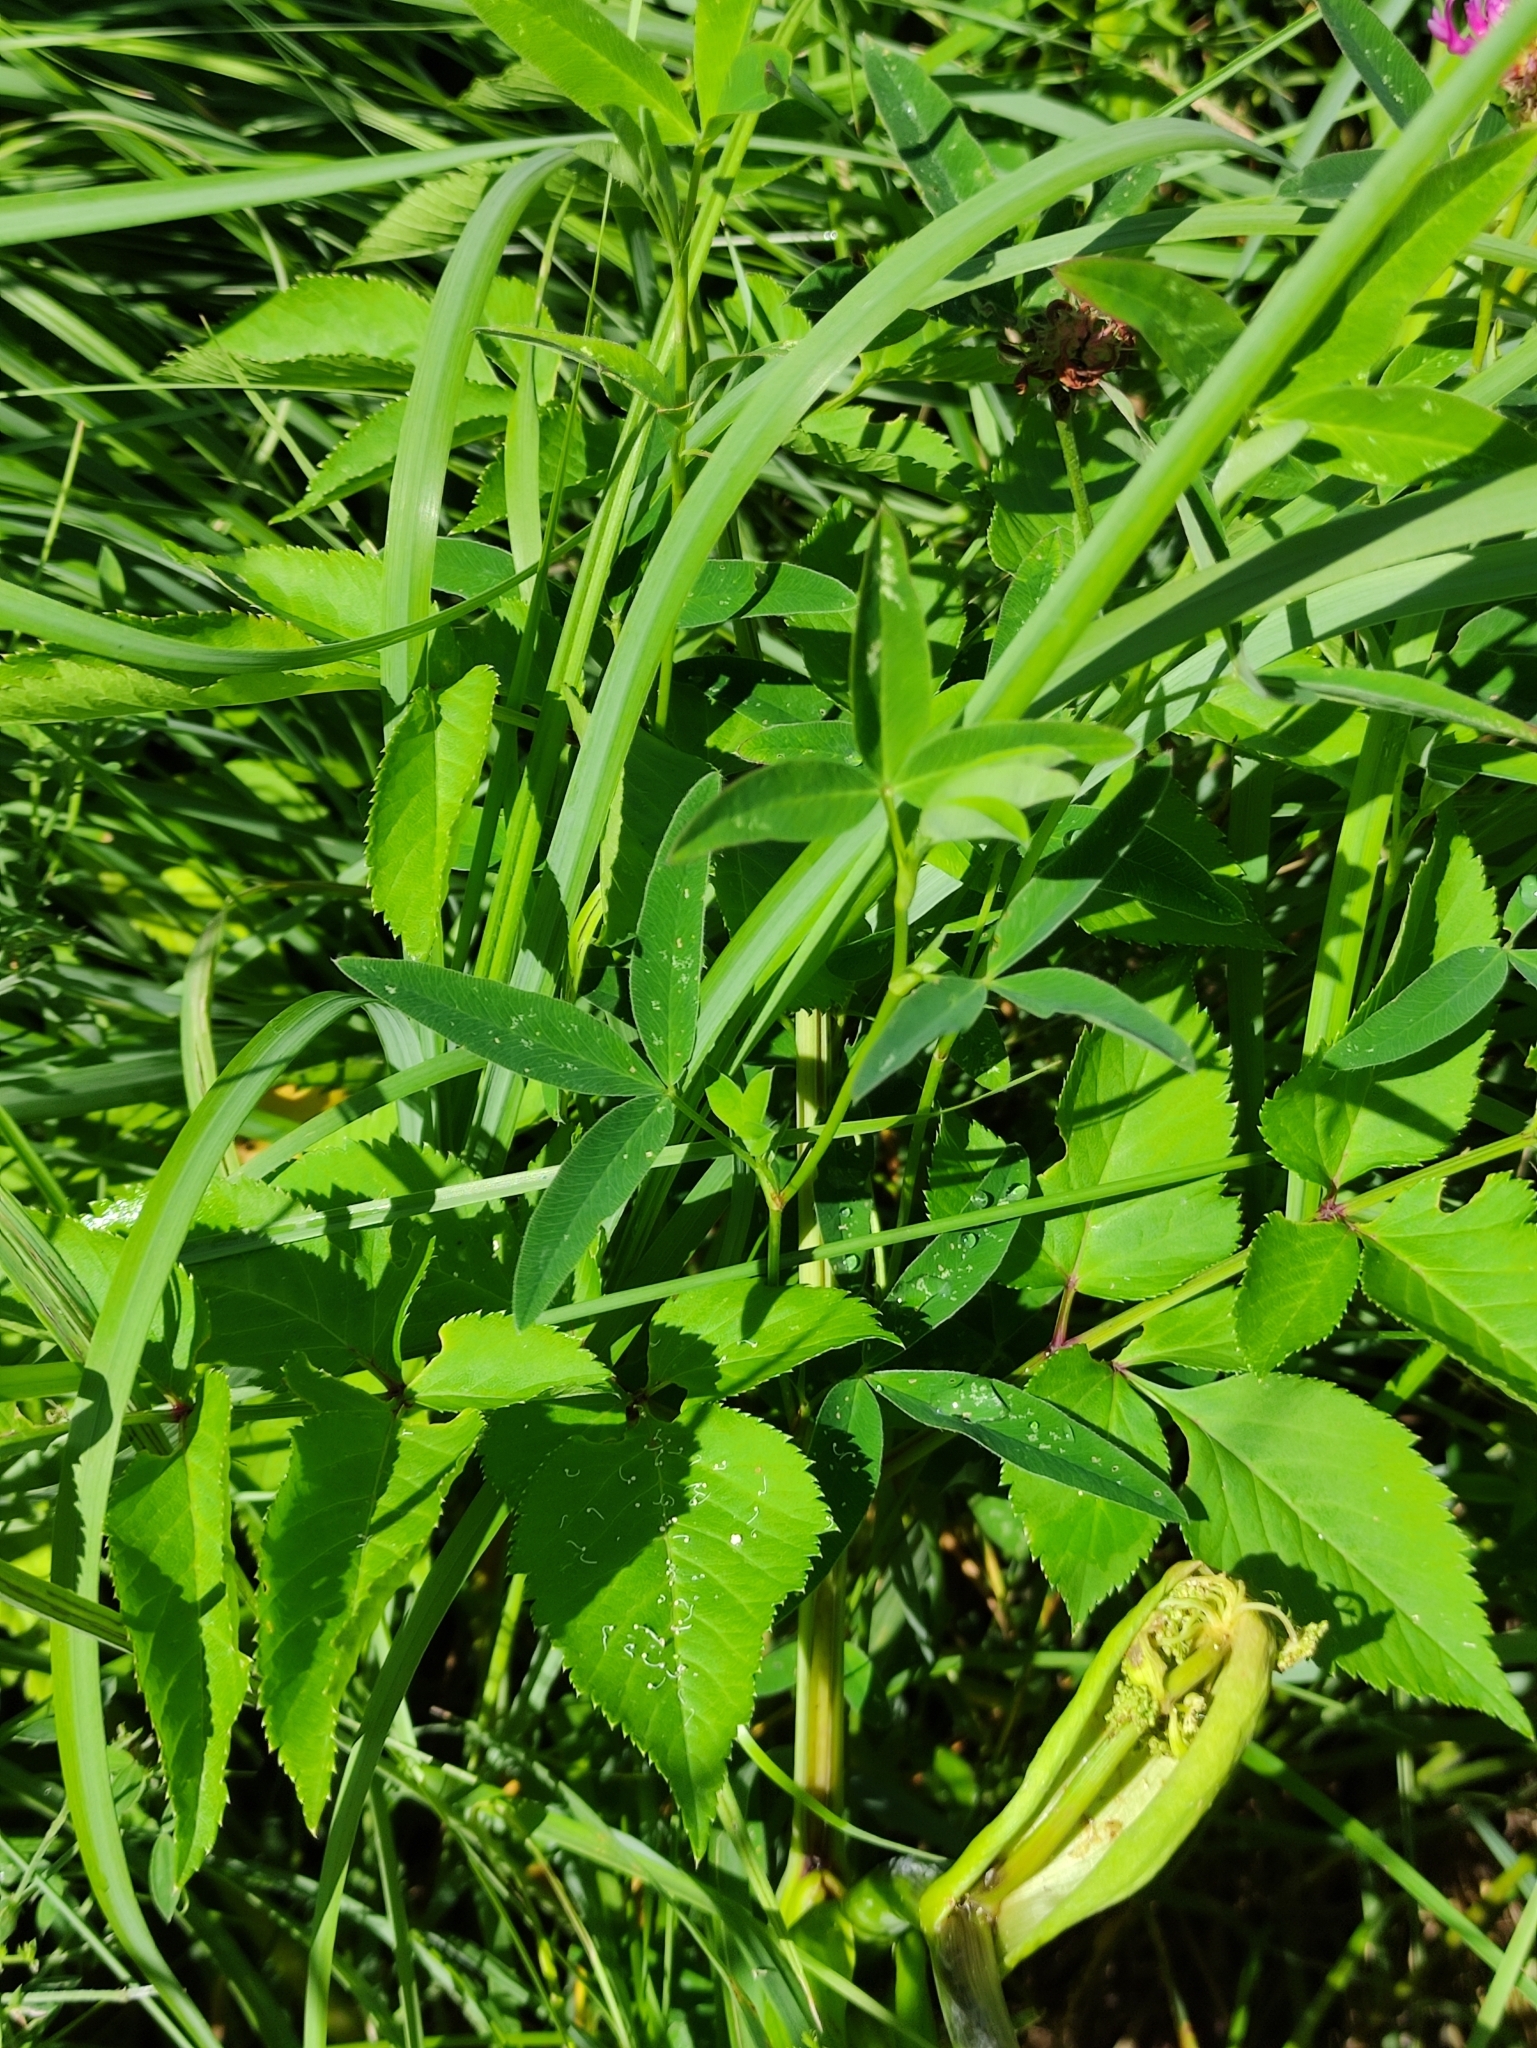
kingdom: Plantae
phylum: Tracheophyta
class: Magnoliopsida
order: Apiales
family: Apiaceae
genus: Angelica
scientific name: Angelica sylvestris
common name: Wild angelica
